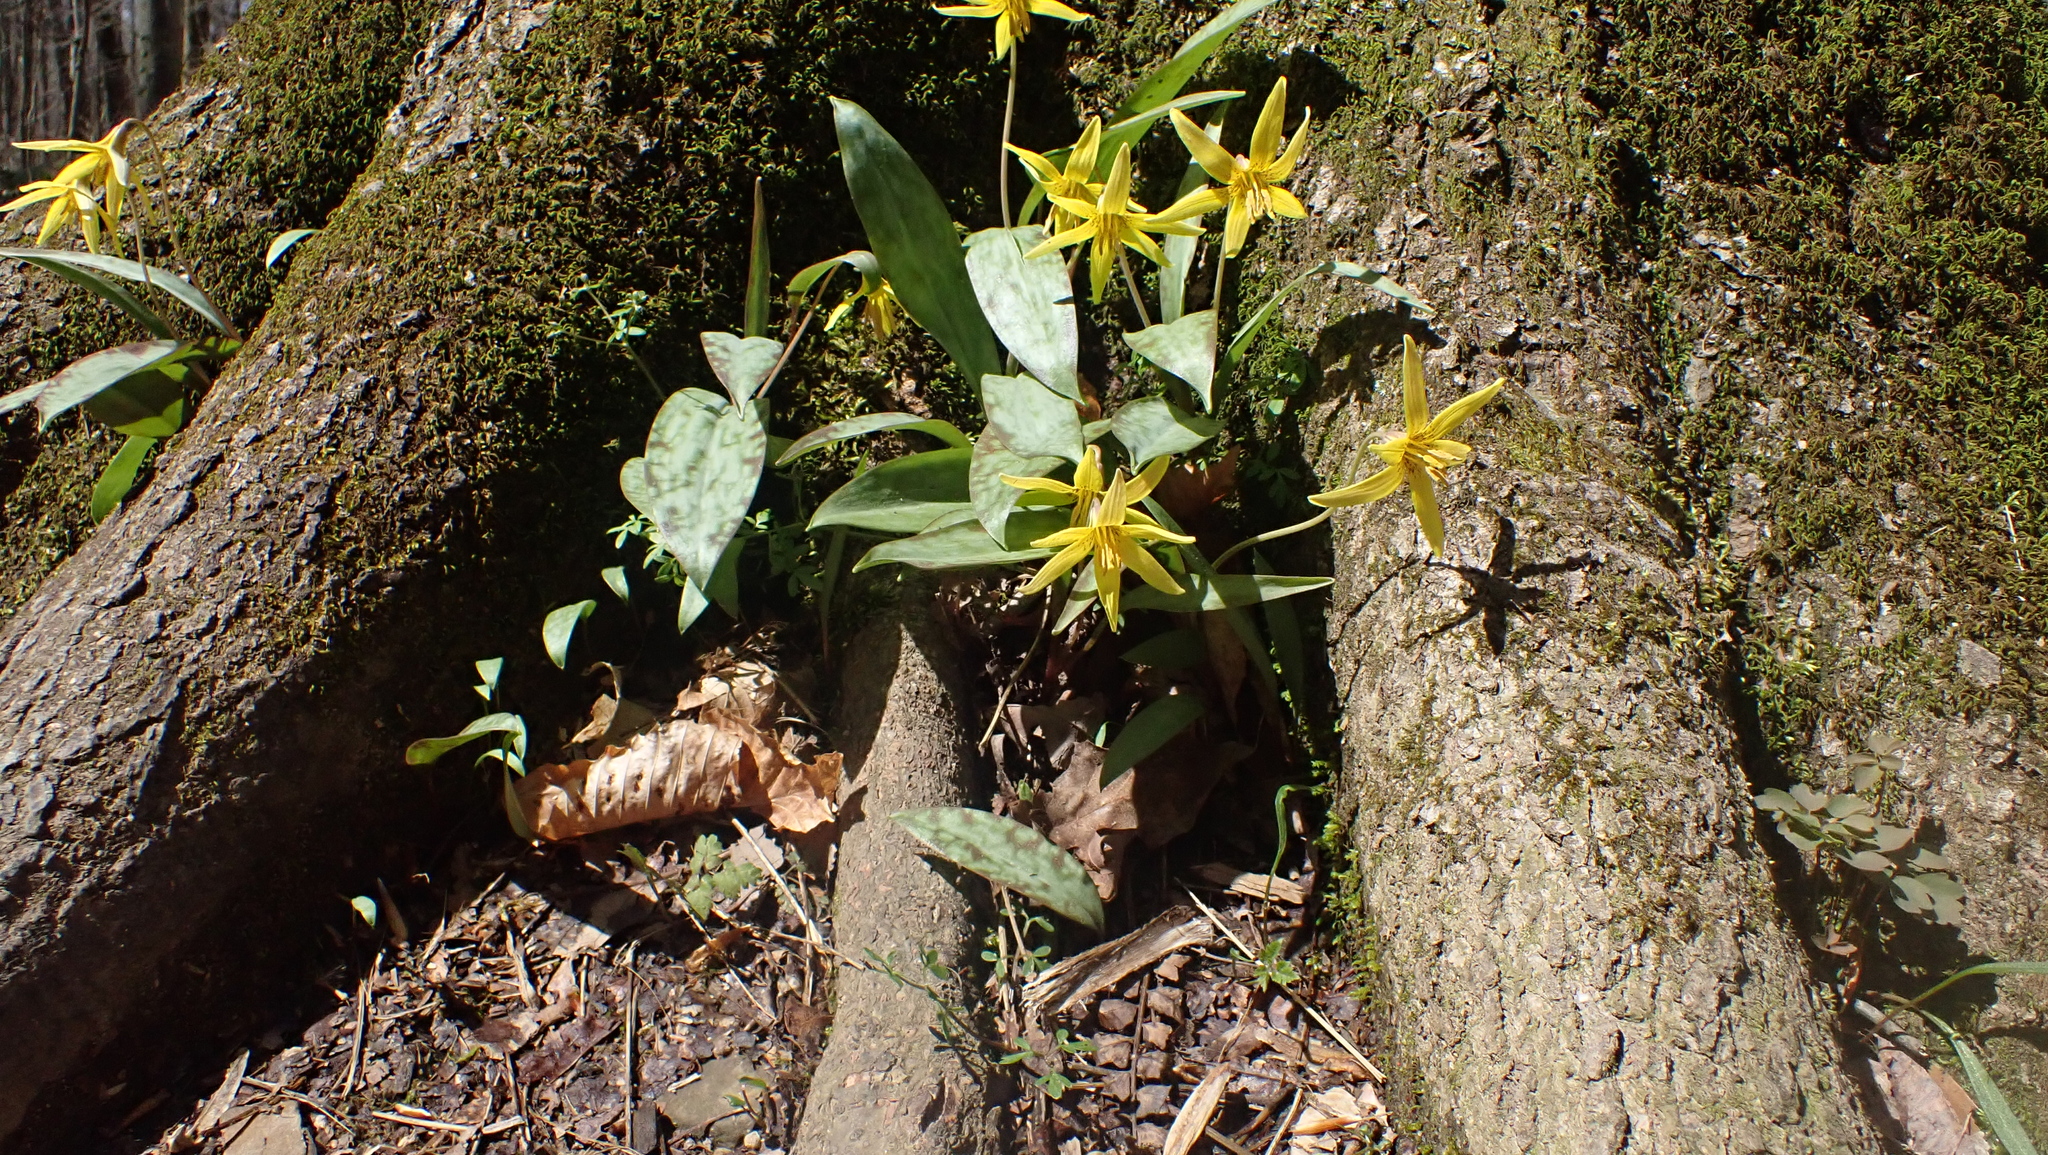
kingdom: Plantae
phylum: Tracheophyta
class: Liliopsida
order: Liliales
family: Liliaceae
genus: Erythronium
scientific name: Erythronium americanum
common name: Yellow adder's-tongue
